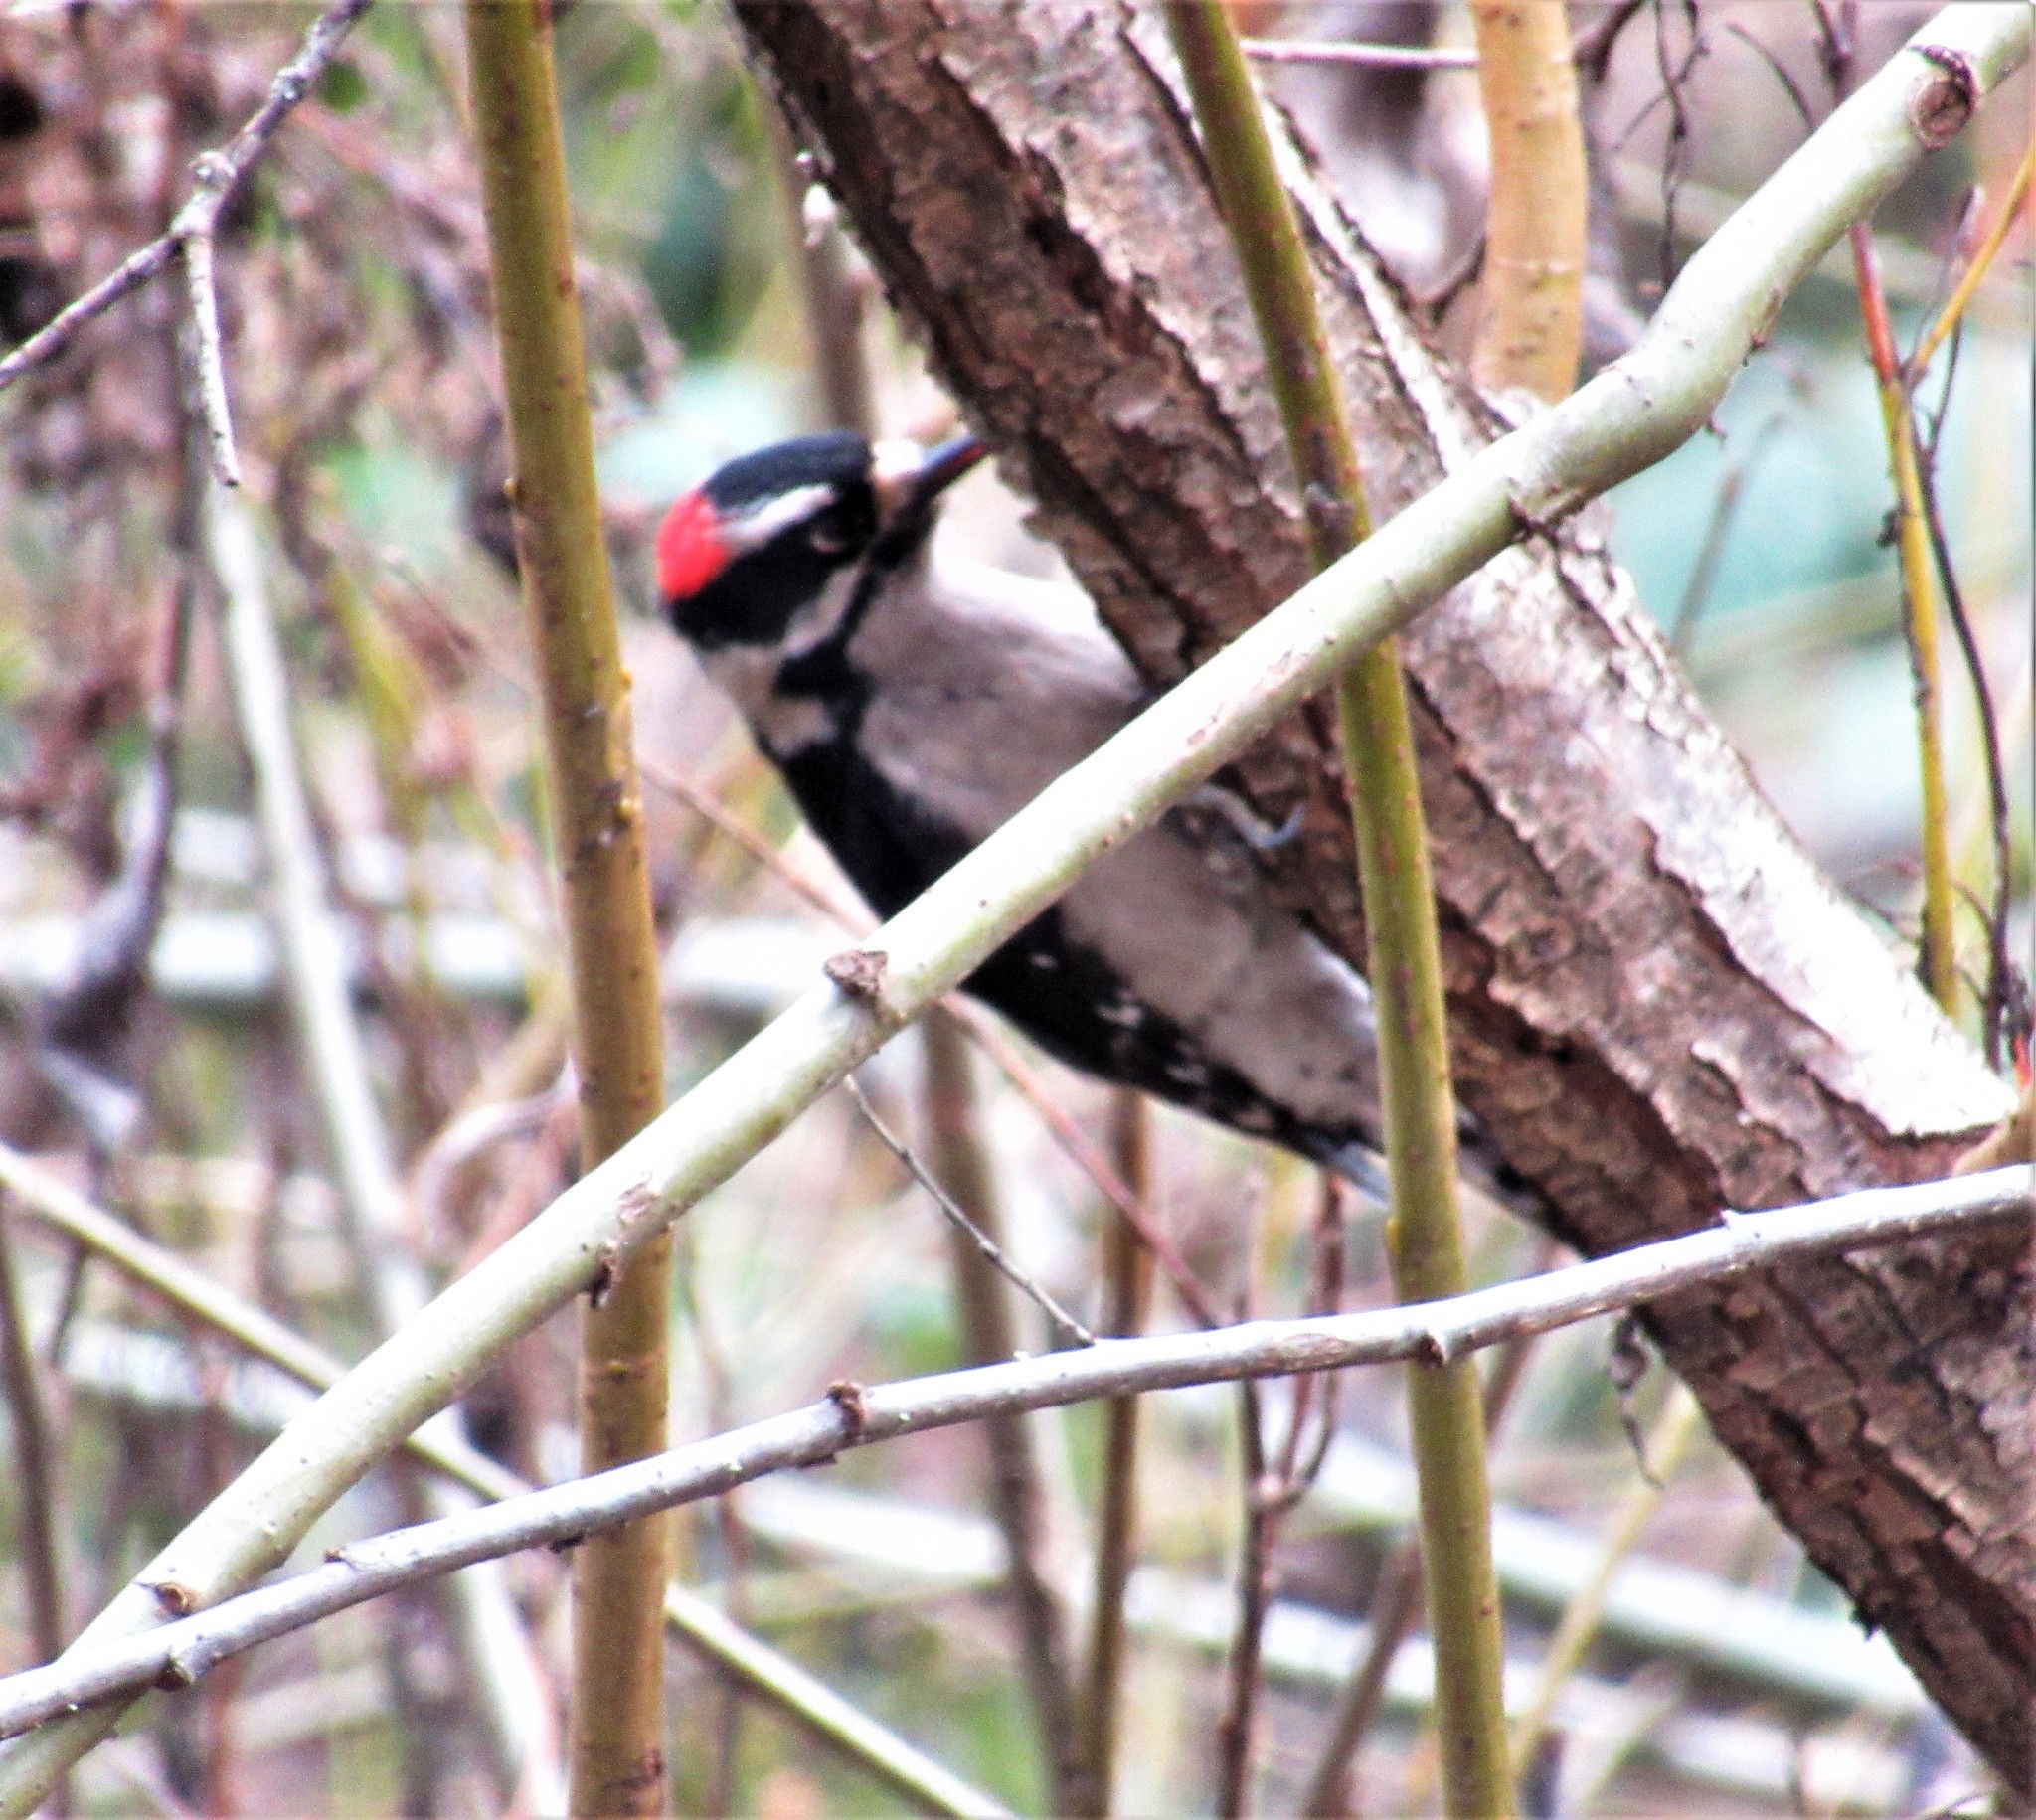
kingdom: Animalia
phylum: Chordata
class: Aves
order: Piciformes
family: Picidae
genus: Dryobates
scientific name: Dryobates pubescens
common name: Downy woodpecker
